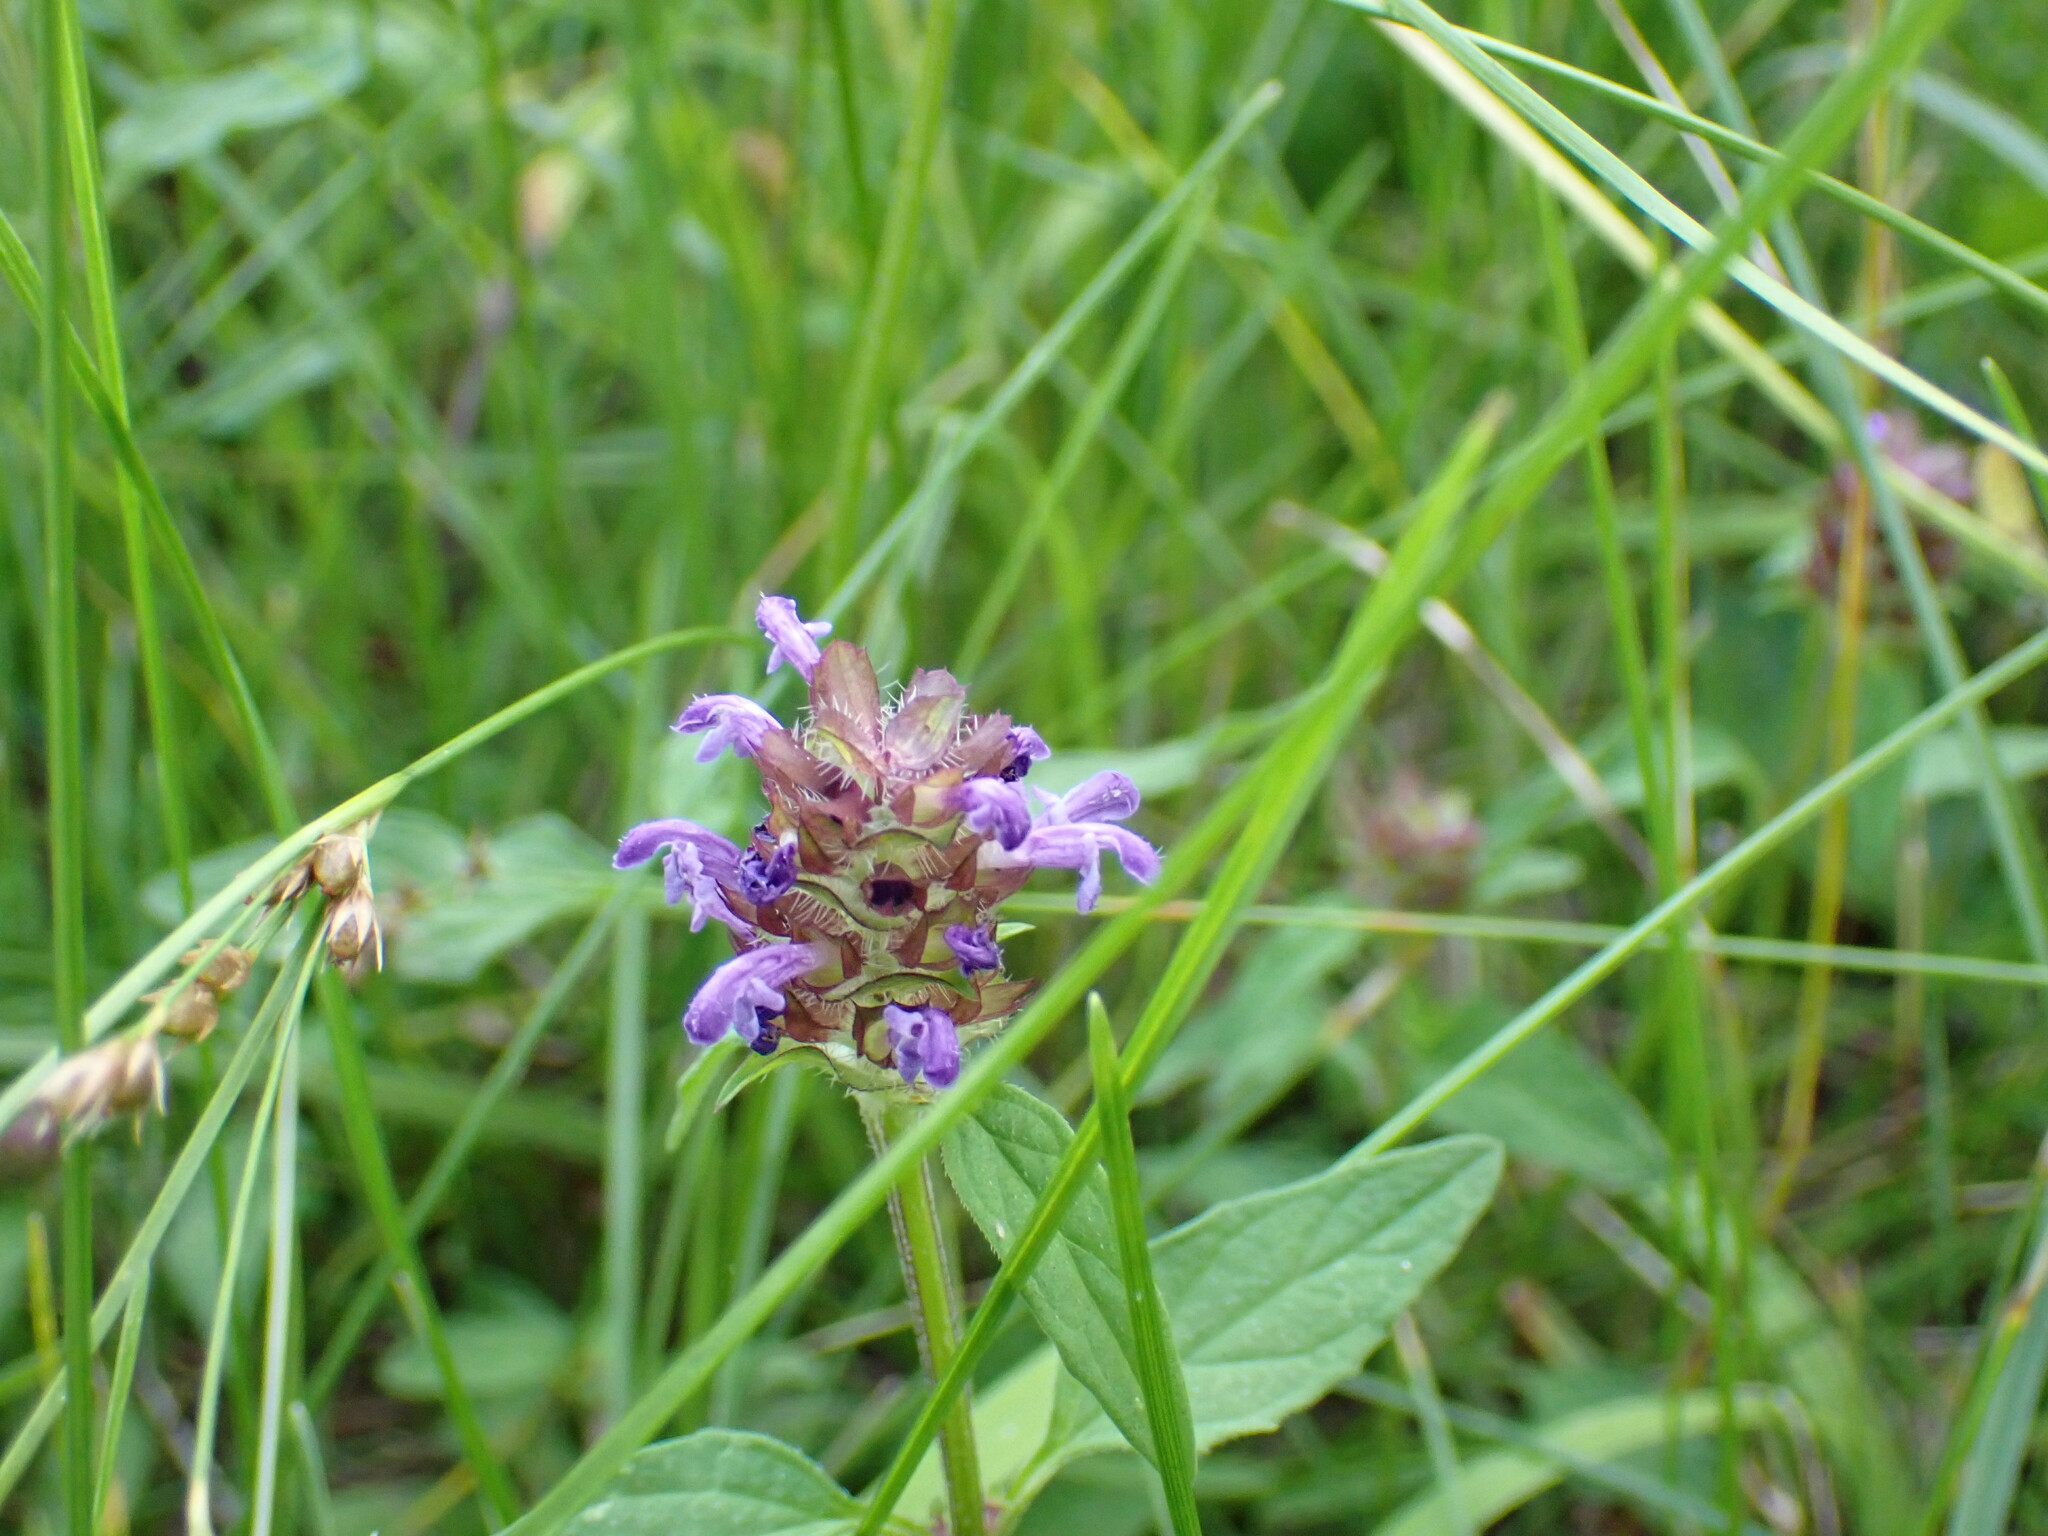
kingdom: Plantae
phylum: Tracheophyta
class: Magnoliopsida
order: Lamiales
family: Lamiaceae
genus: Prunella
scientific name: Prunella vulgaris
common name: Heal-all
